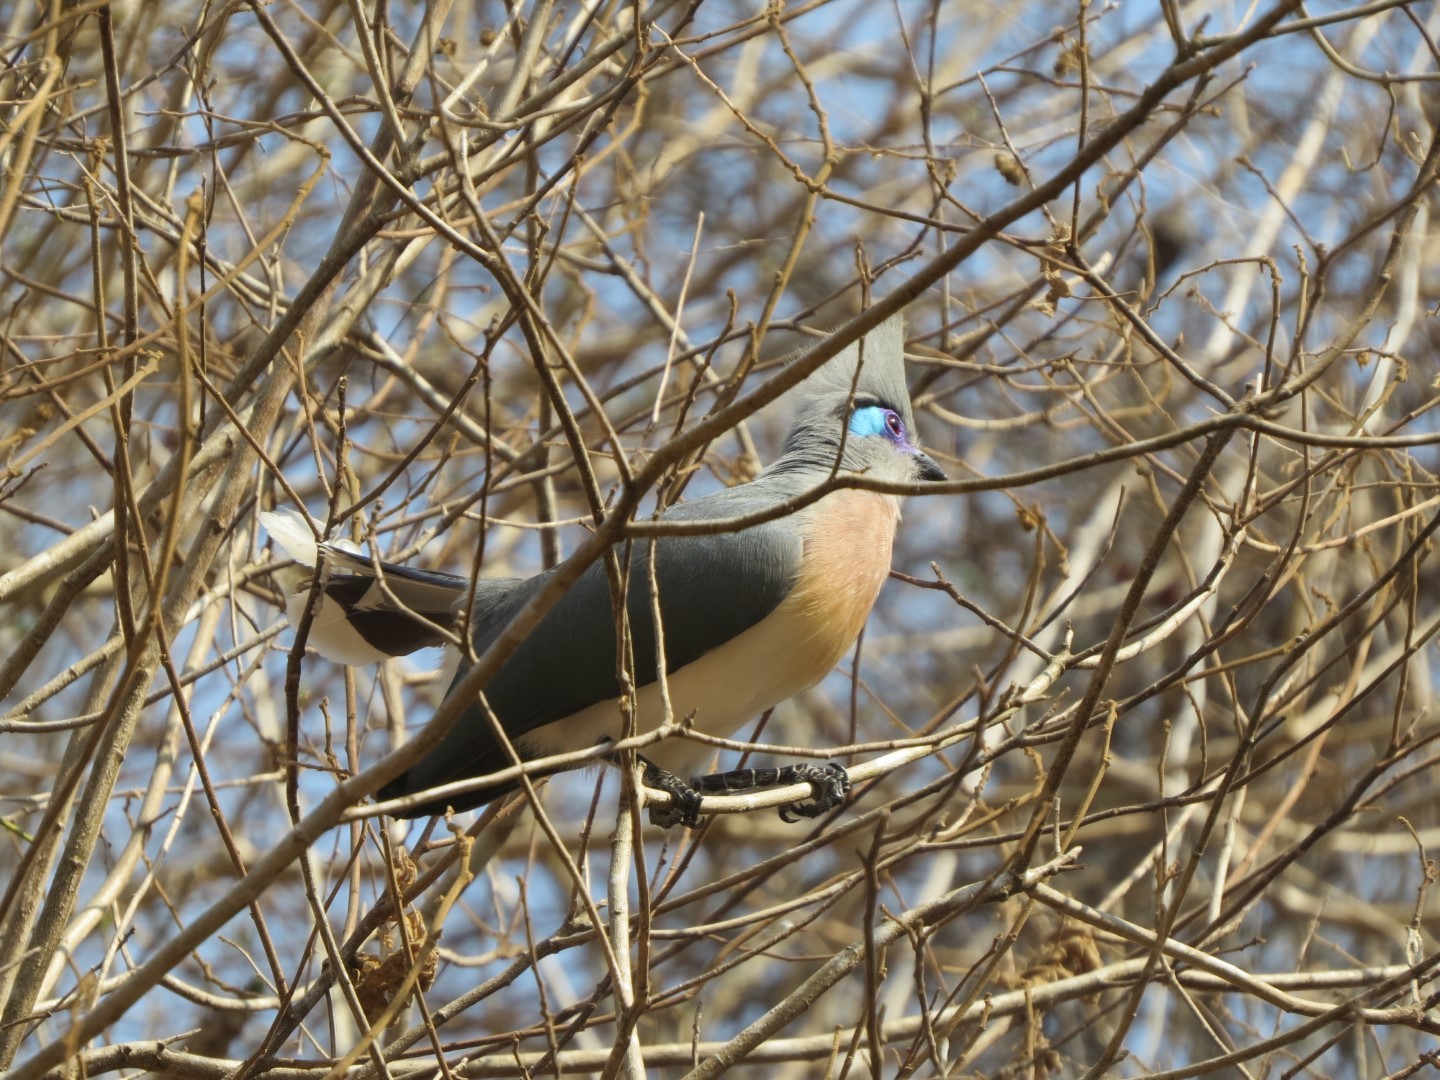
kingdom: Animalia
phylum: Chordata
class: Aves
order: Cuculiformes
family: Cuculidae
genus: Coua
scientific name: Coua cristata
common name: Crested coua
